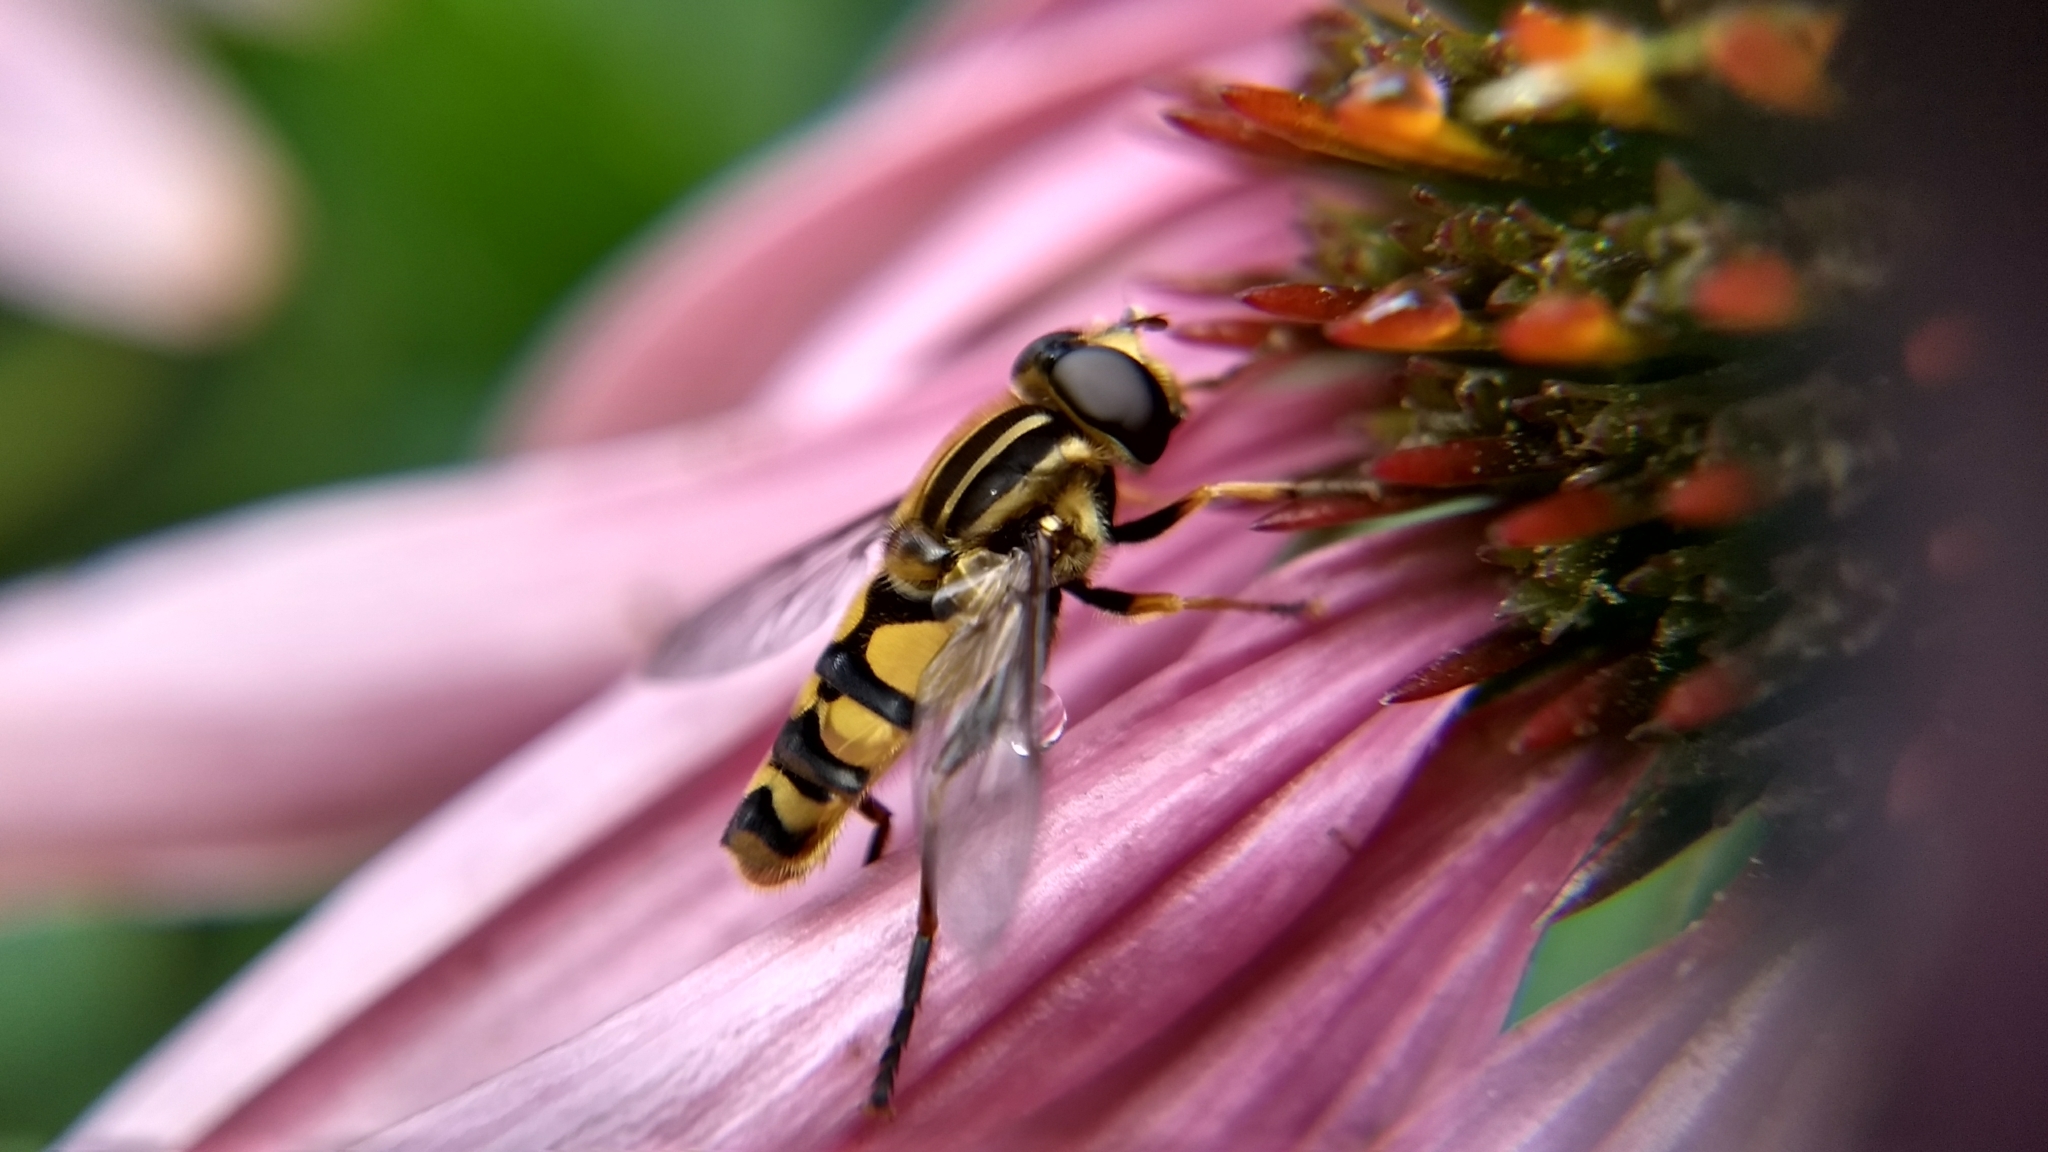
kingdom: Animalia
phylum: Arthropoda
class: Insecta
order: Diptera
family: Syrphidae
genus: Helophilus
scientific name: Helophilus fasciatus
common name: Narrow-headed marsh fly
